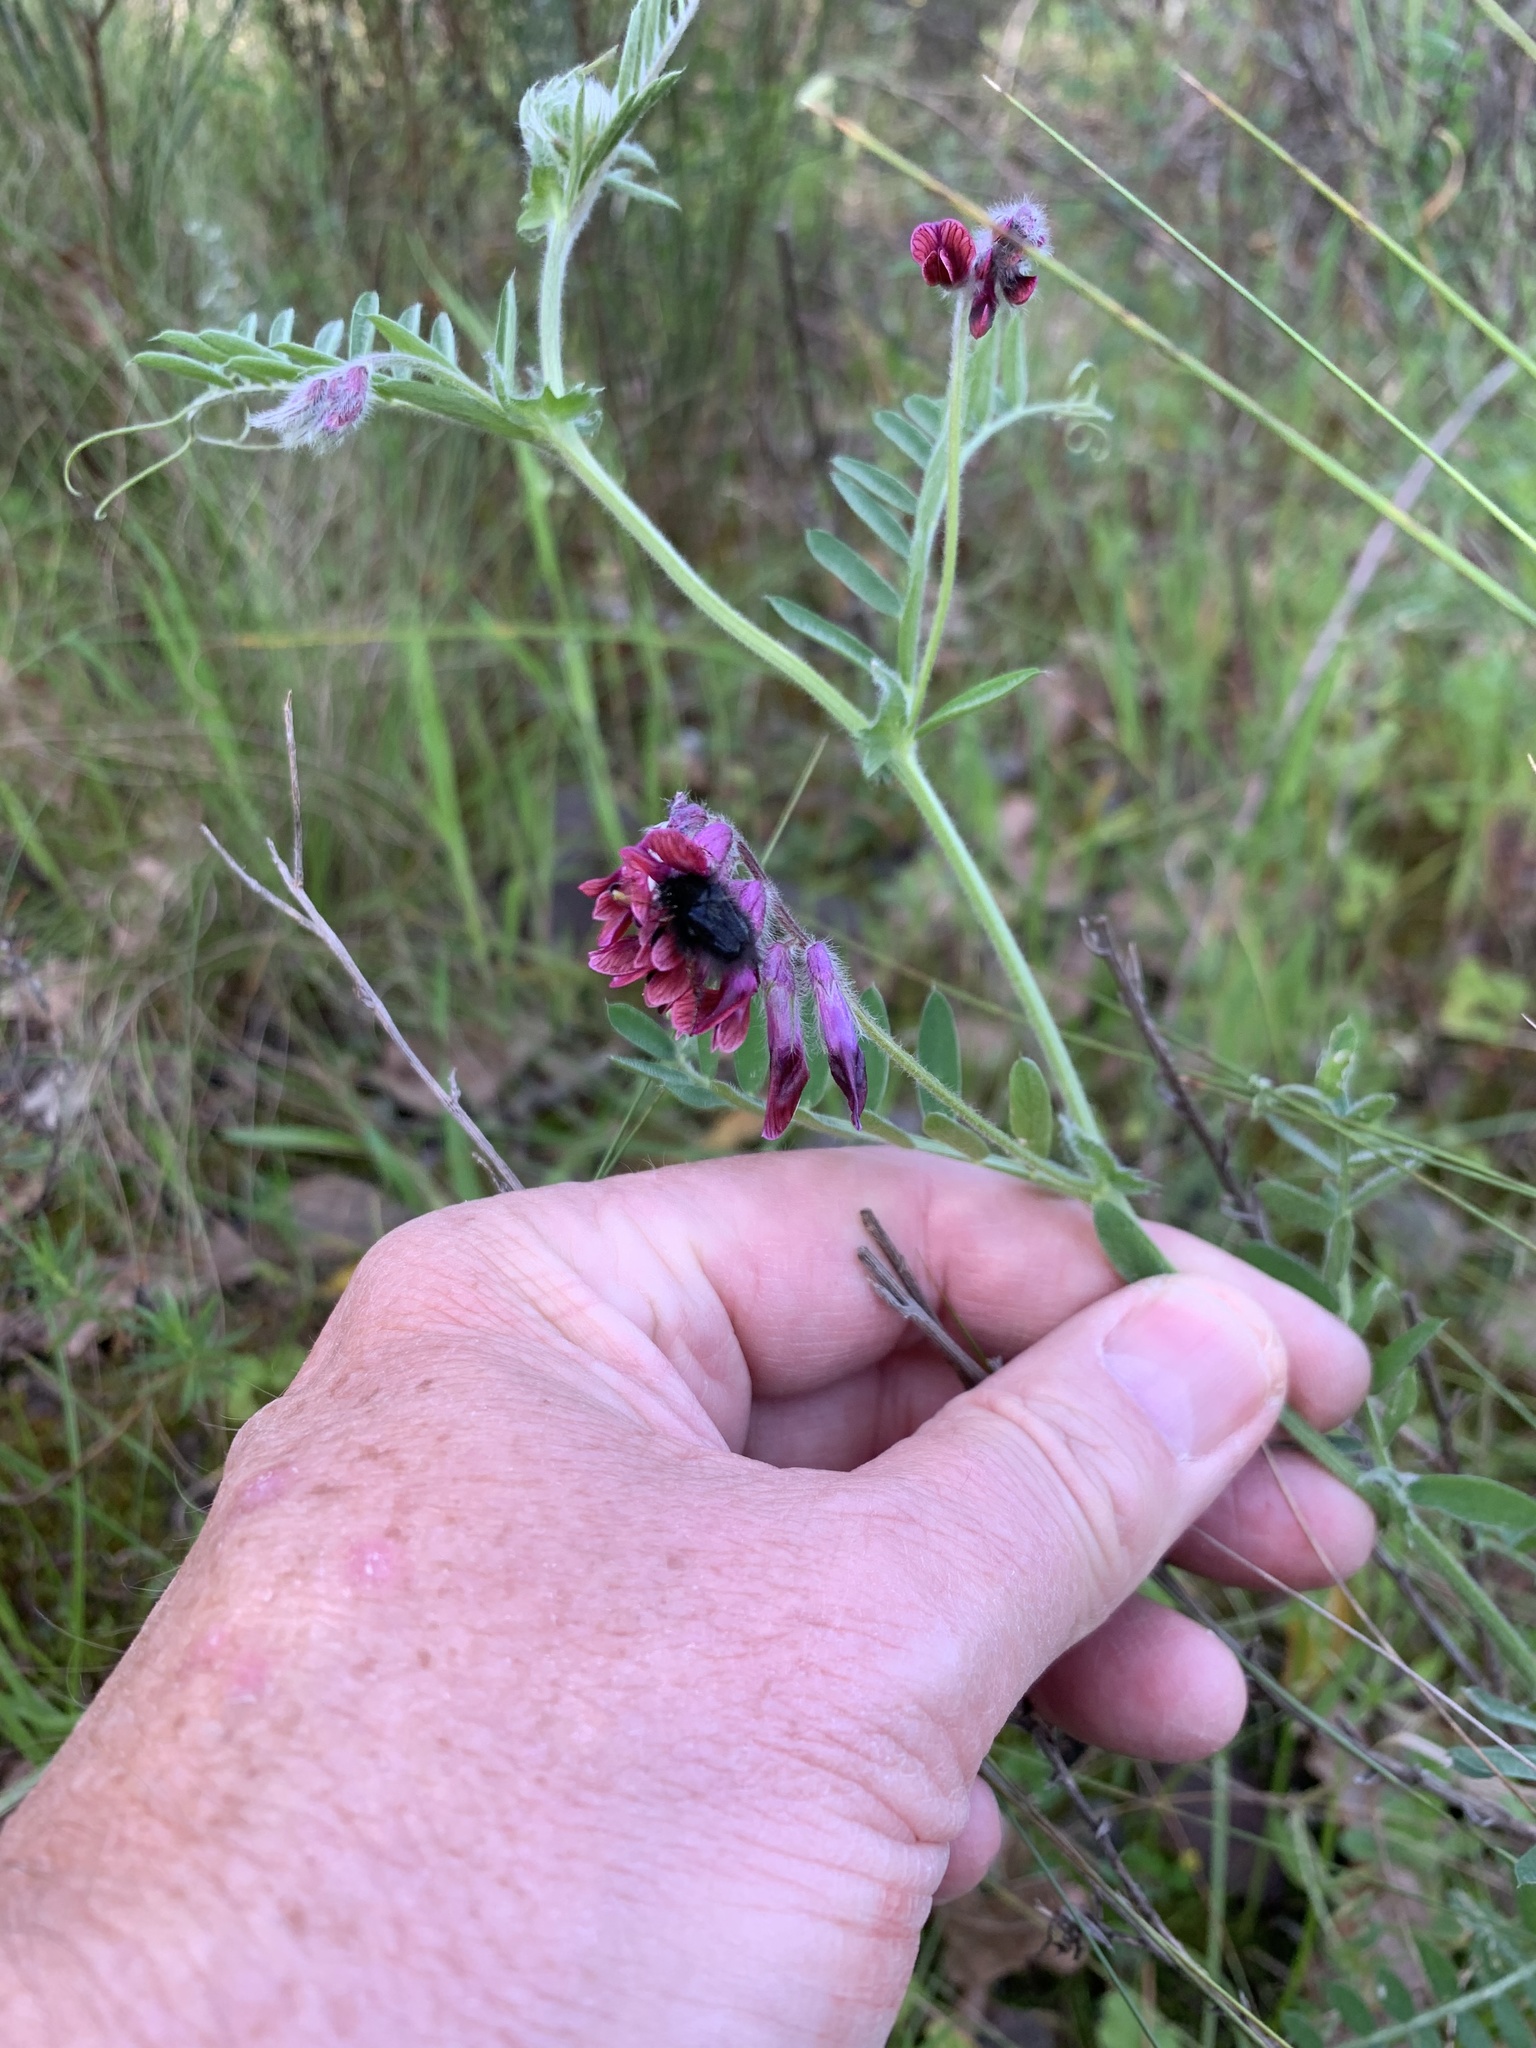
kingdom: Plantae
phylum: Tracheophyta
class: Magnoliopsida
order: Fabales
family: Fabaceae
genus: Vicia
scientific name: Vicia benghalensis
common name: Purple vetch
